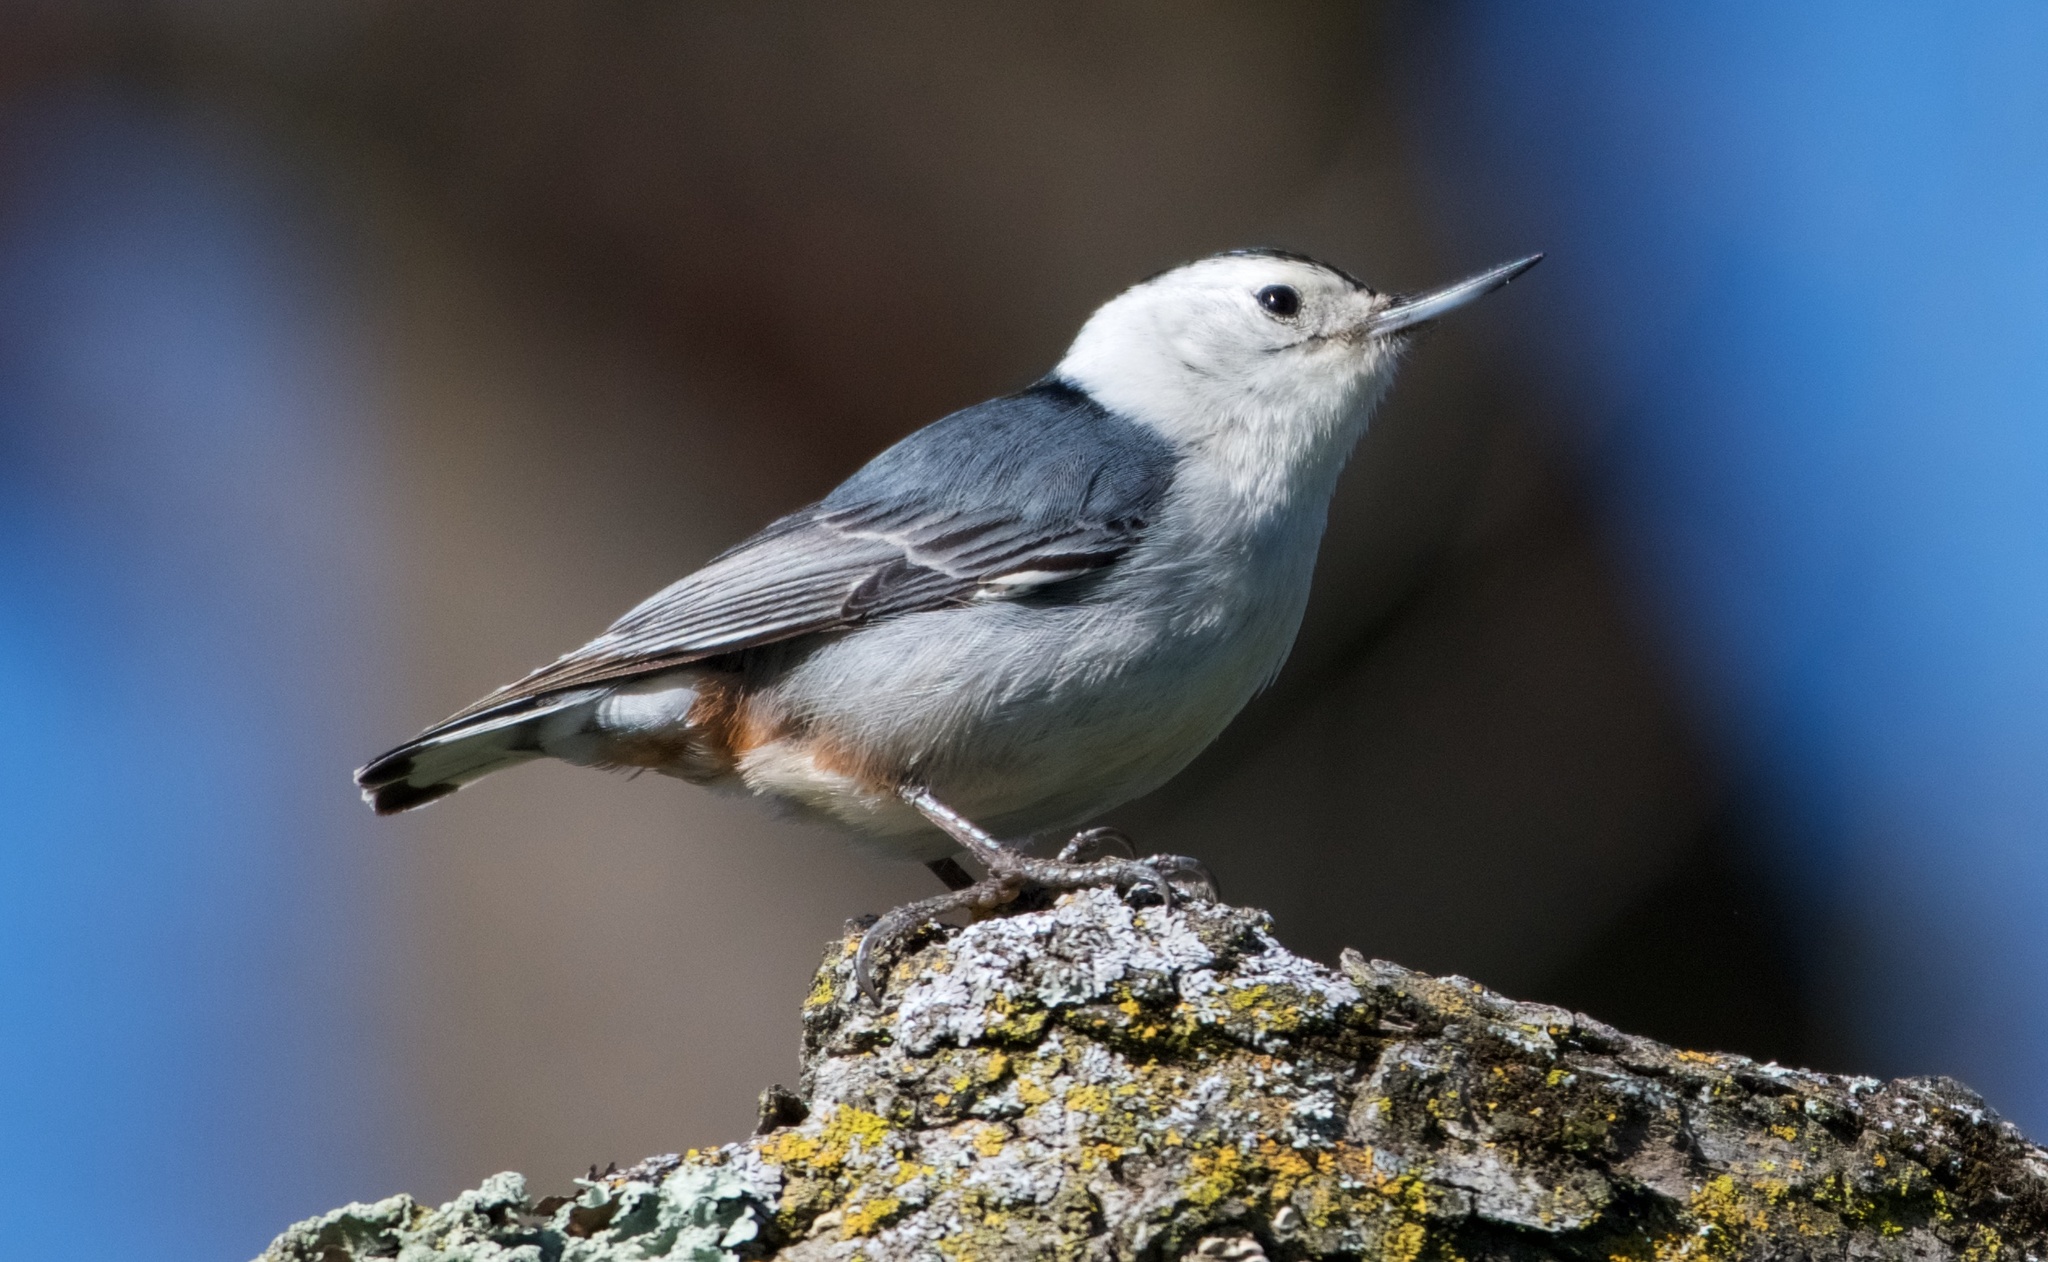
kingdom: Animalia
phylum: Chordata
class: Aves
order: Passeriformes
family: Sittidae
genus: Sitta
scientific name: Sitta carolinensis
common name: White-breasted nuthatch
